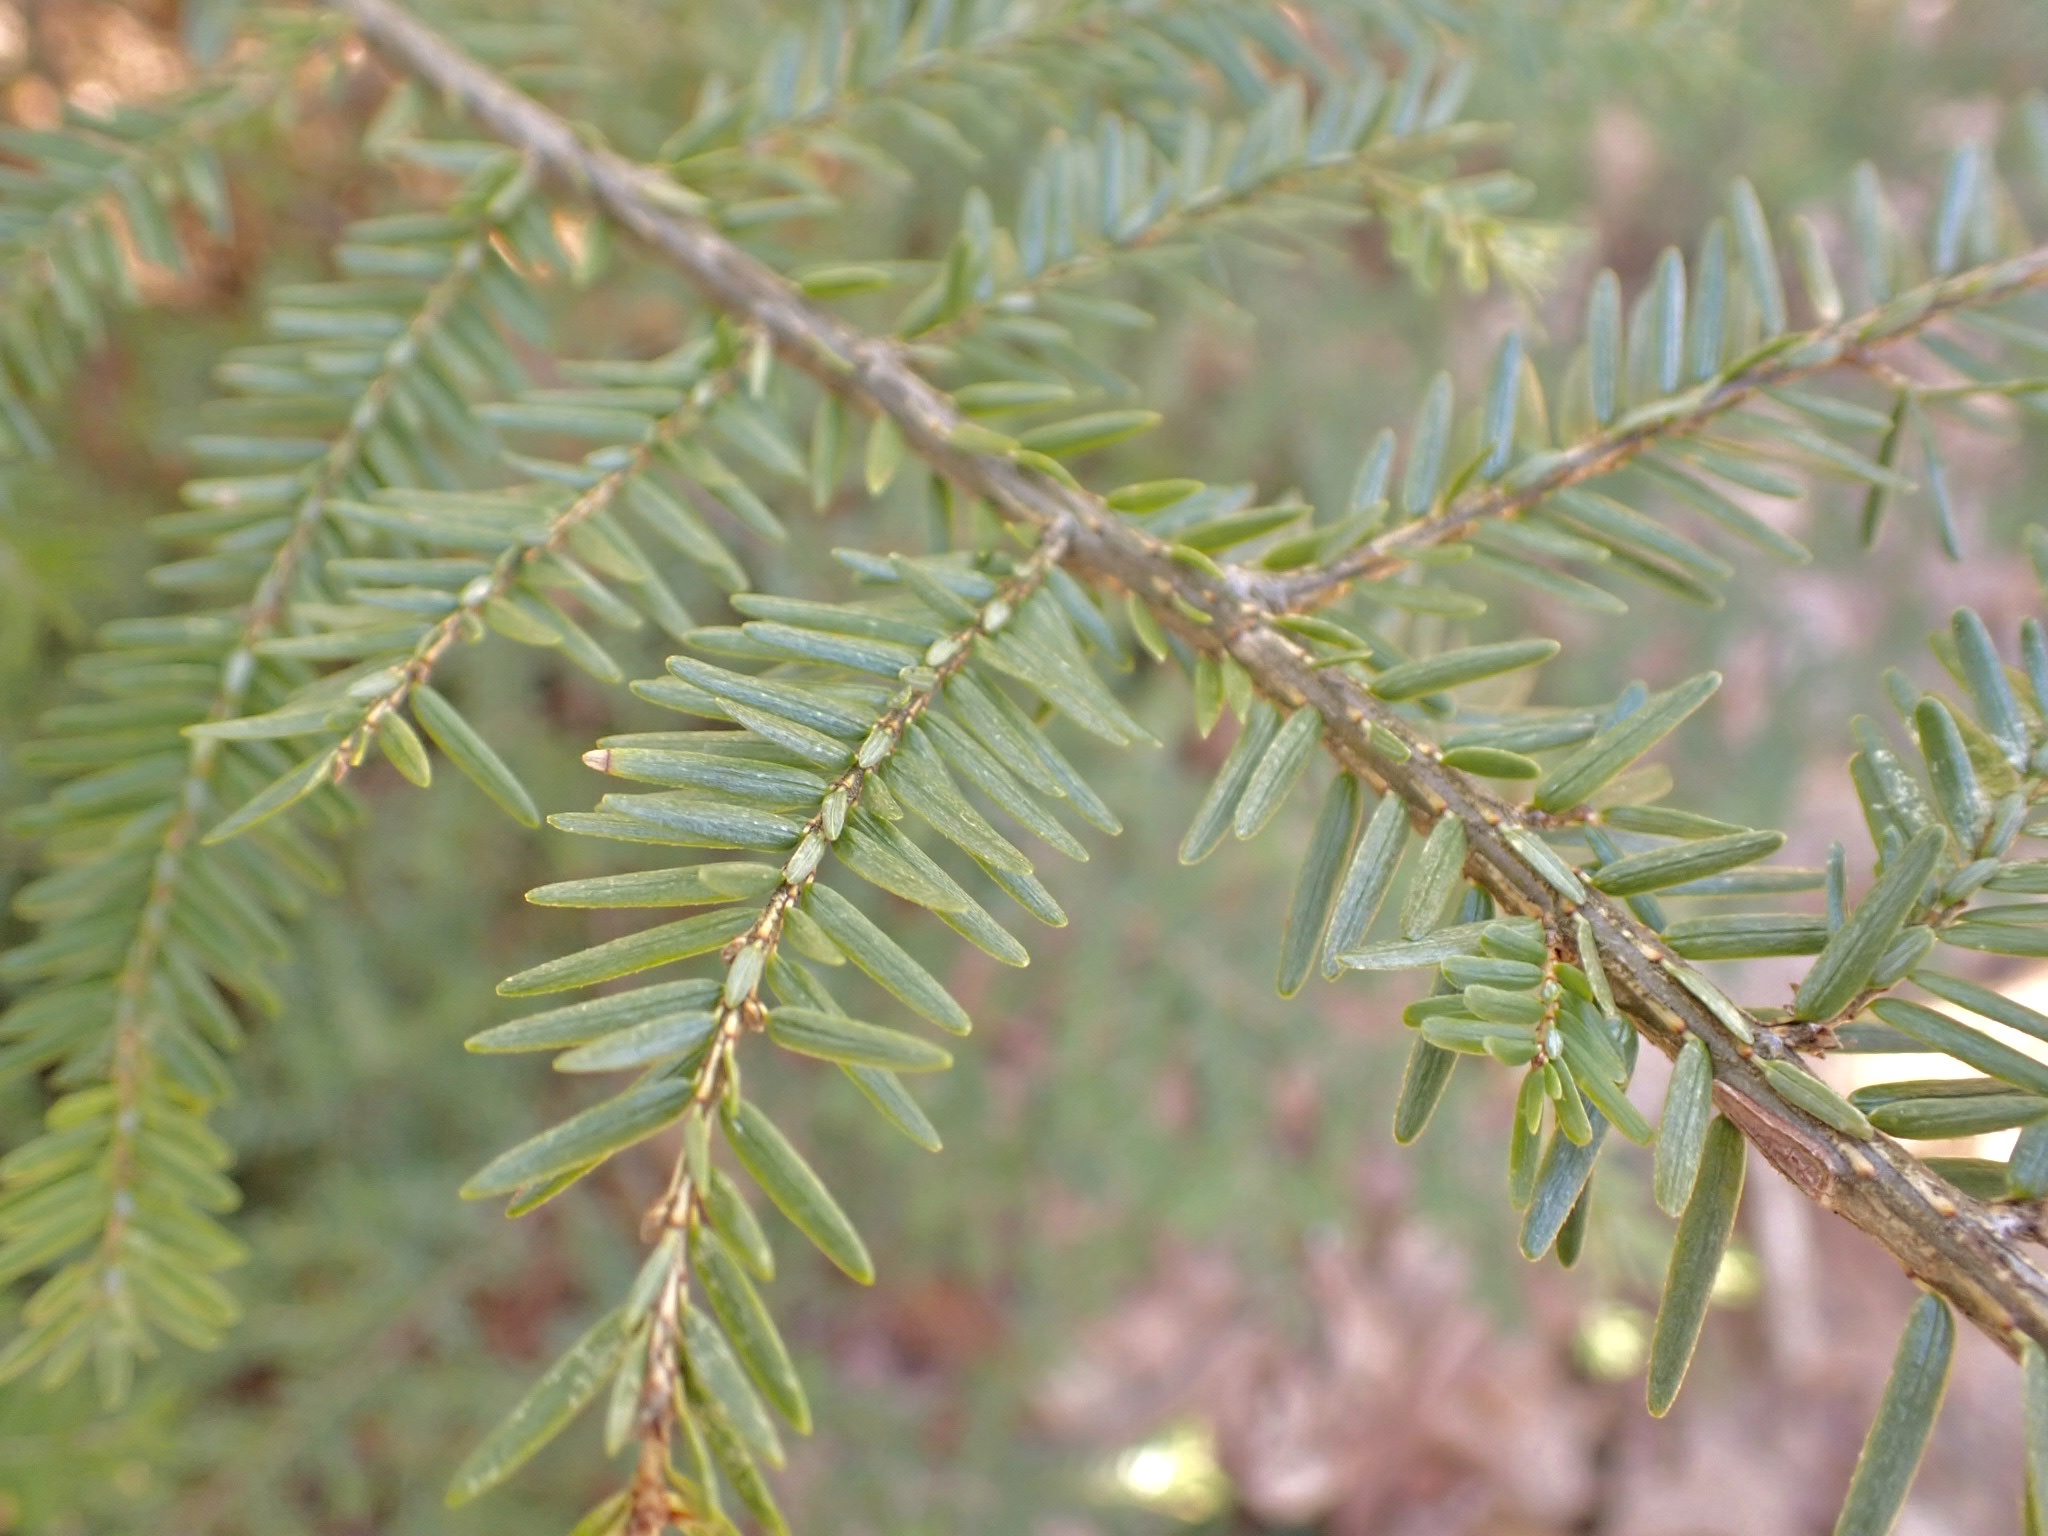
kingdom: Plantae
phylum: Tracheophyta
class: Pinopsida
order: Pinales
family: Pinaceae
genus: Tsuga
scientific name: Tsuga canadensis
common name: Eastern hemlock
